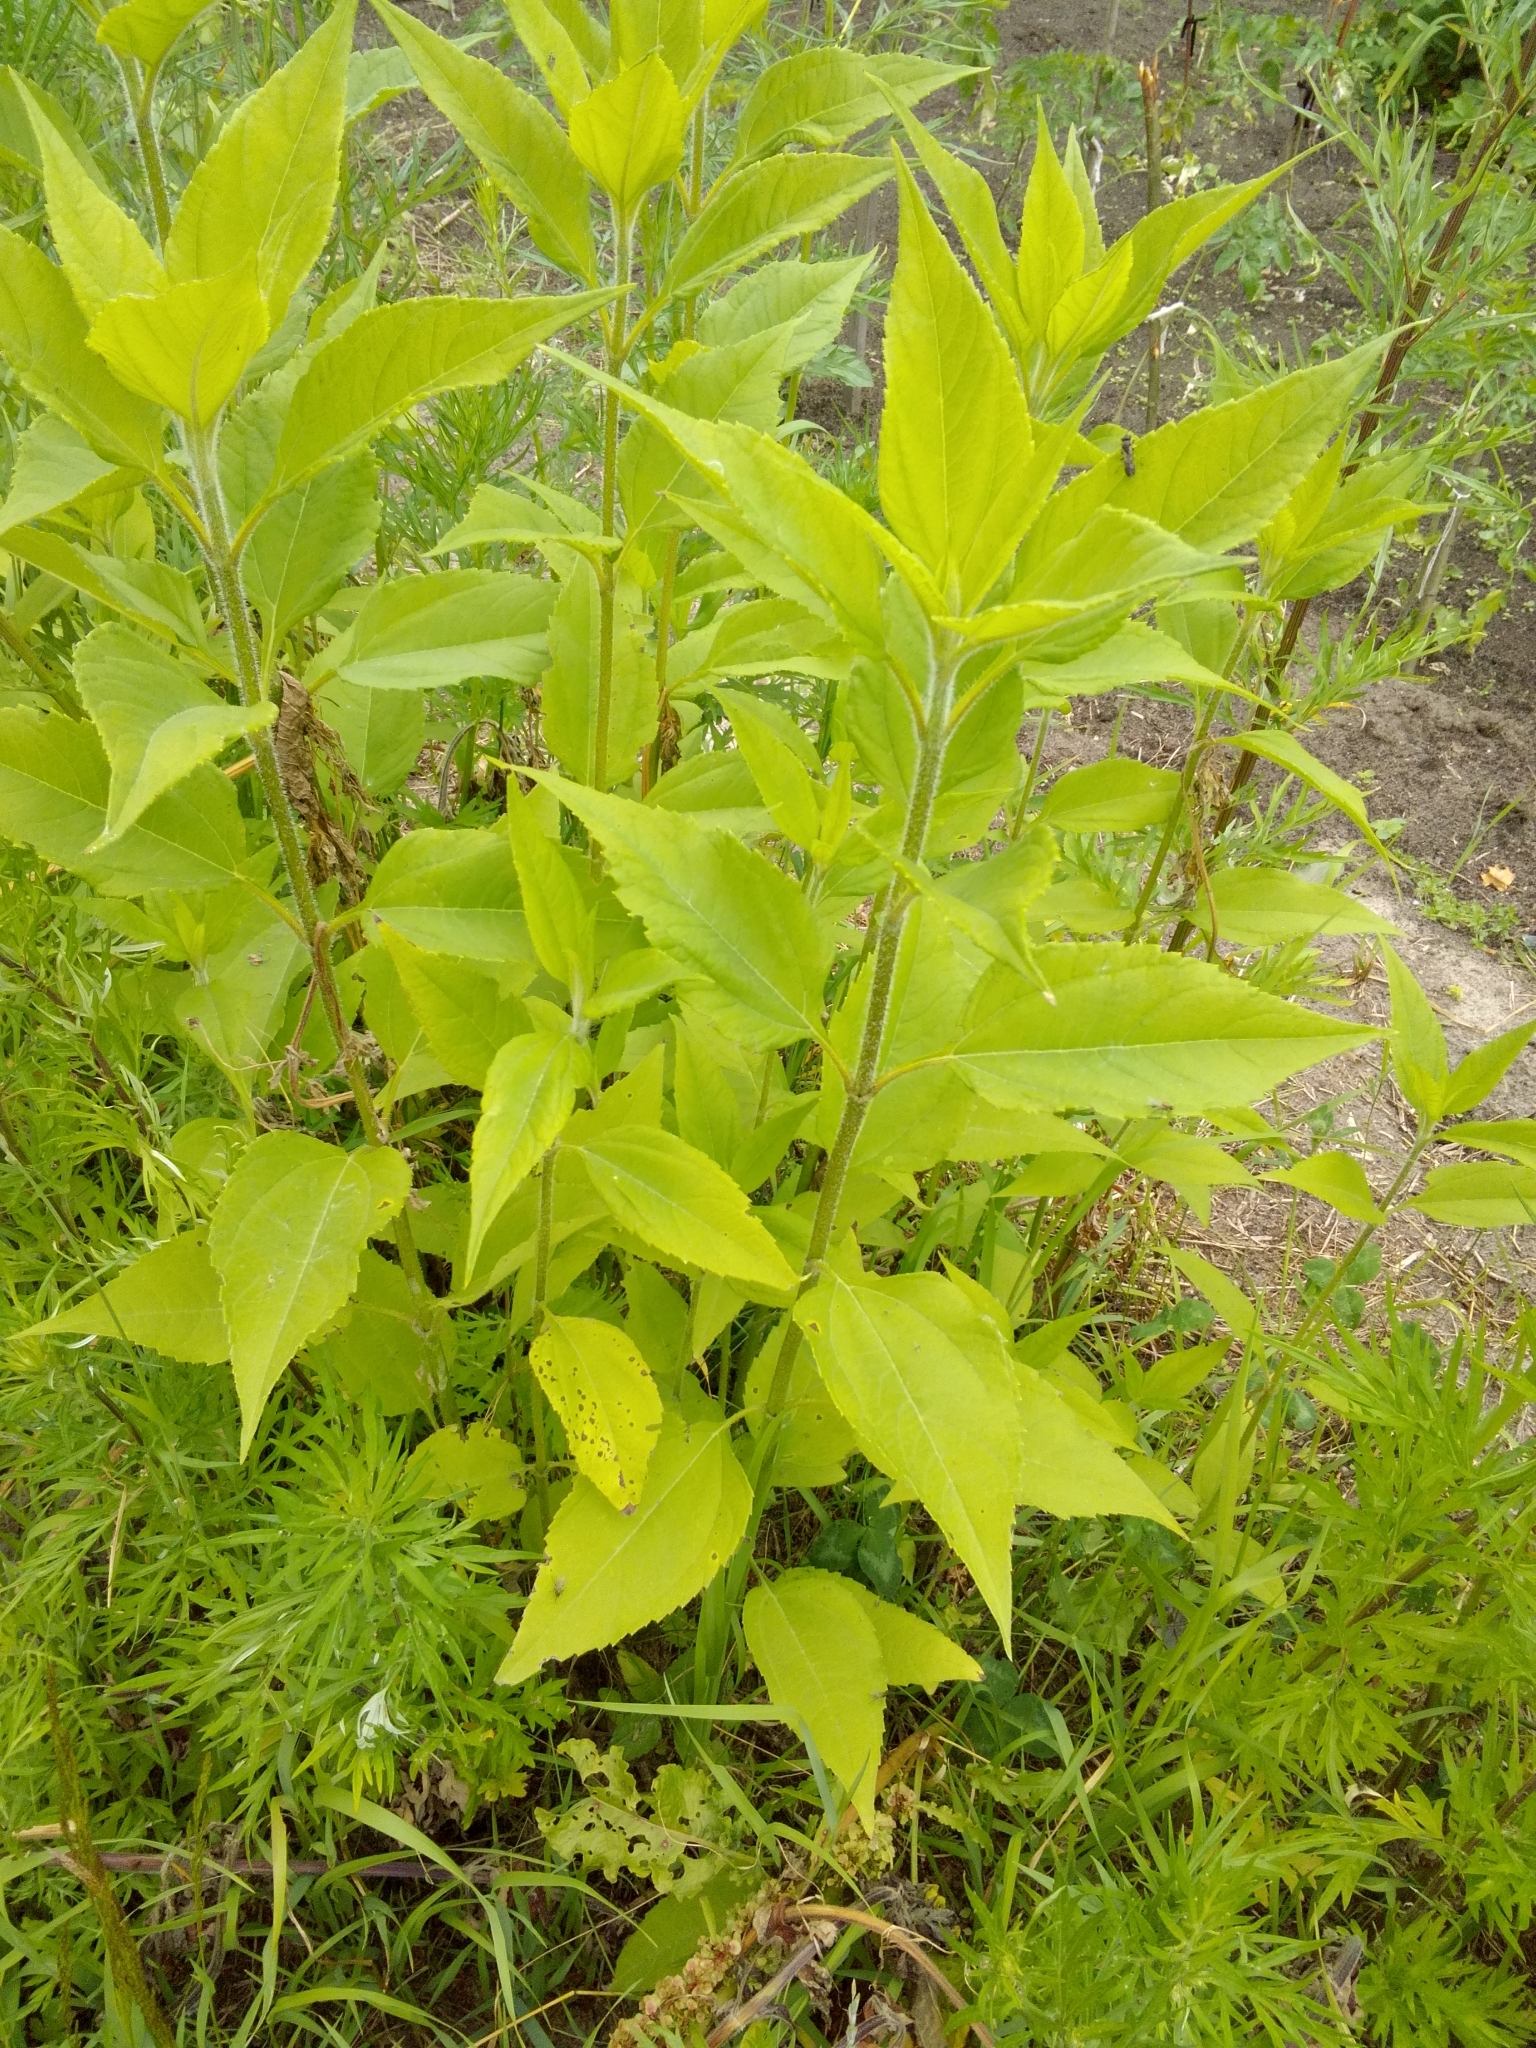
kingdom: Plantae
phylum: Tracheophyta
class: Magnoliopsida
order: Asterales
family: Asteraceae
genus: Helianthus
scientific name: Helianthus tuberosus
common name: Jerusalem artichoke
